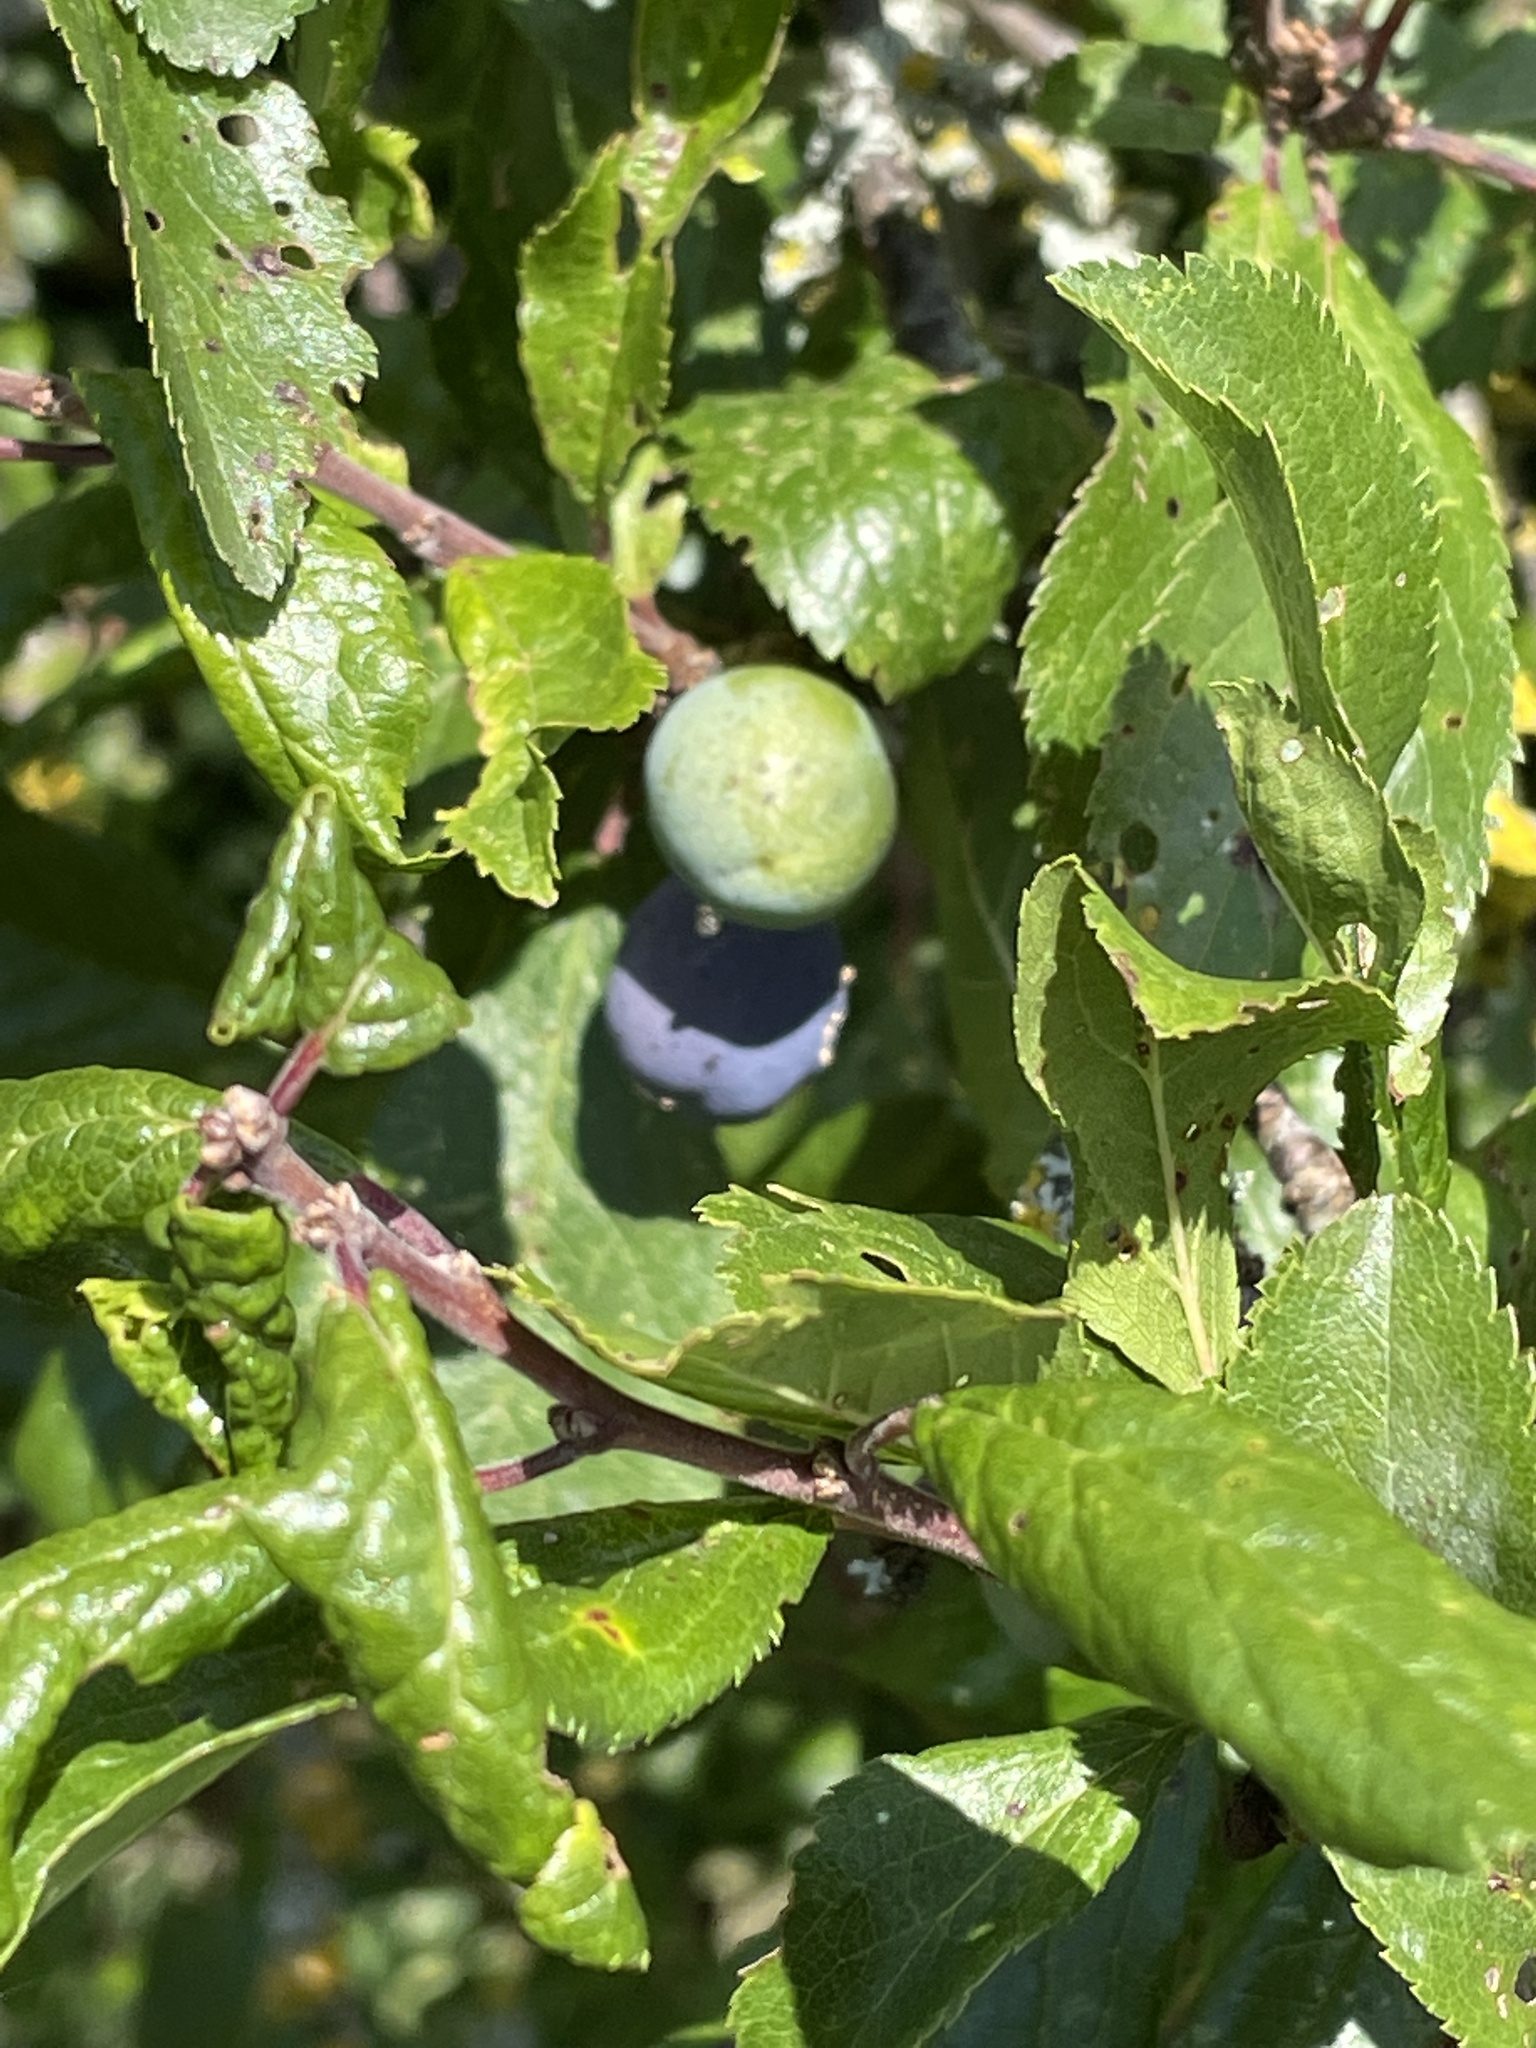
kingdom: Plantae
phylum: Tracheophyta
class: Magnoliopsida
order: Rosales
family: Rosaceae
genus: Prunus
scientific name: Prunus spinosa
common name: Blackthorn
